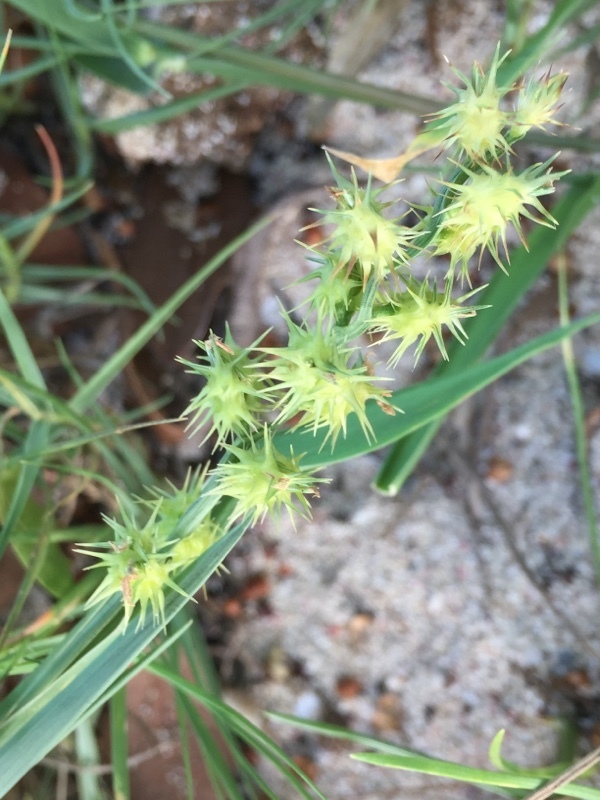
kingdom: Plantae
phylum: Tracheophyta
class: Liliopsida
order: Poales
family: Poaceae
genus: Cenchrus
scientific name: Cenchrus echinatus
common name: Southern sandbur
